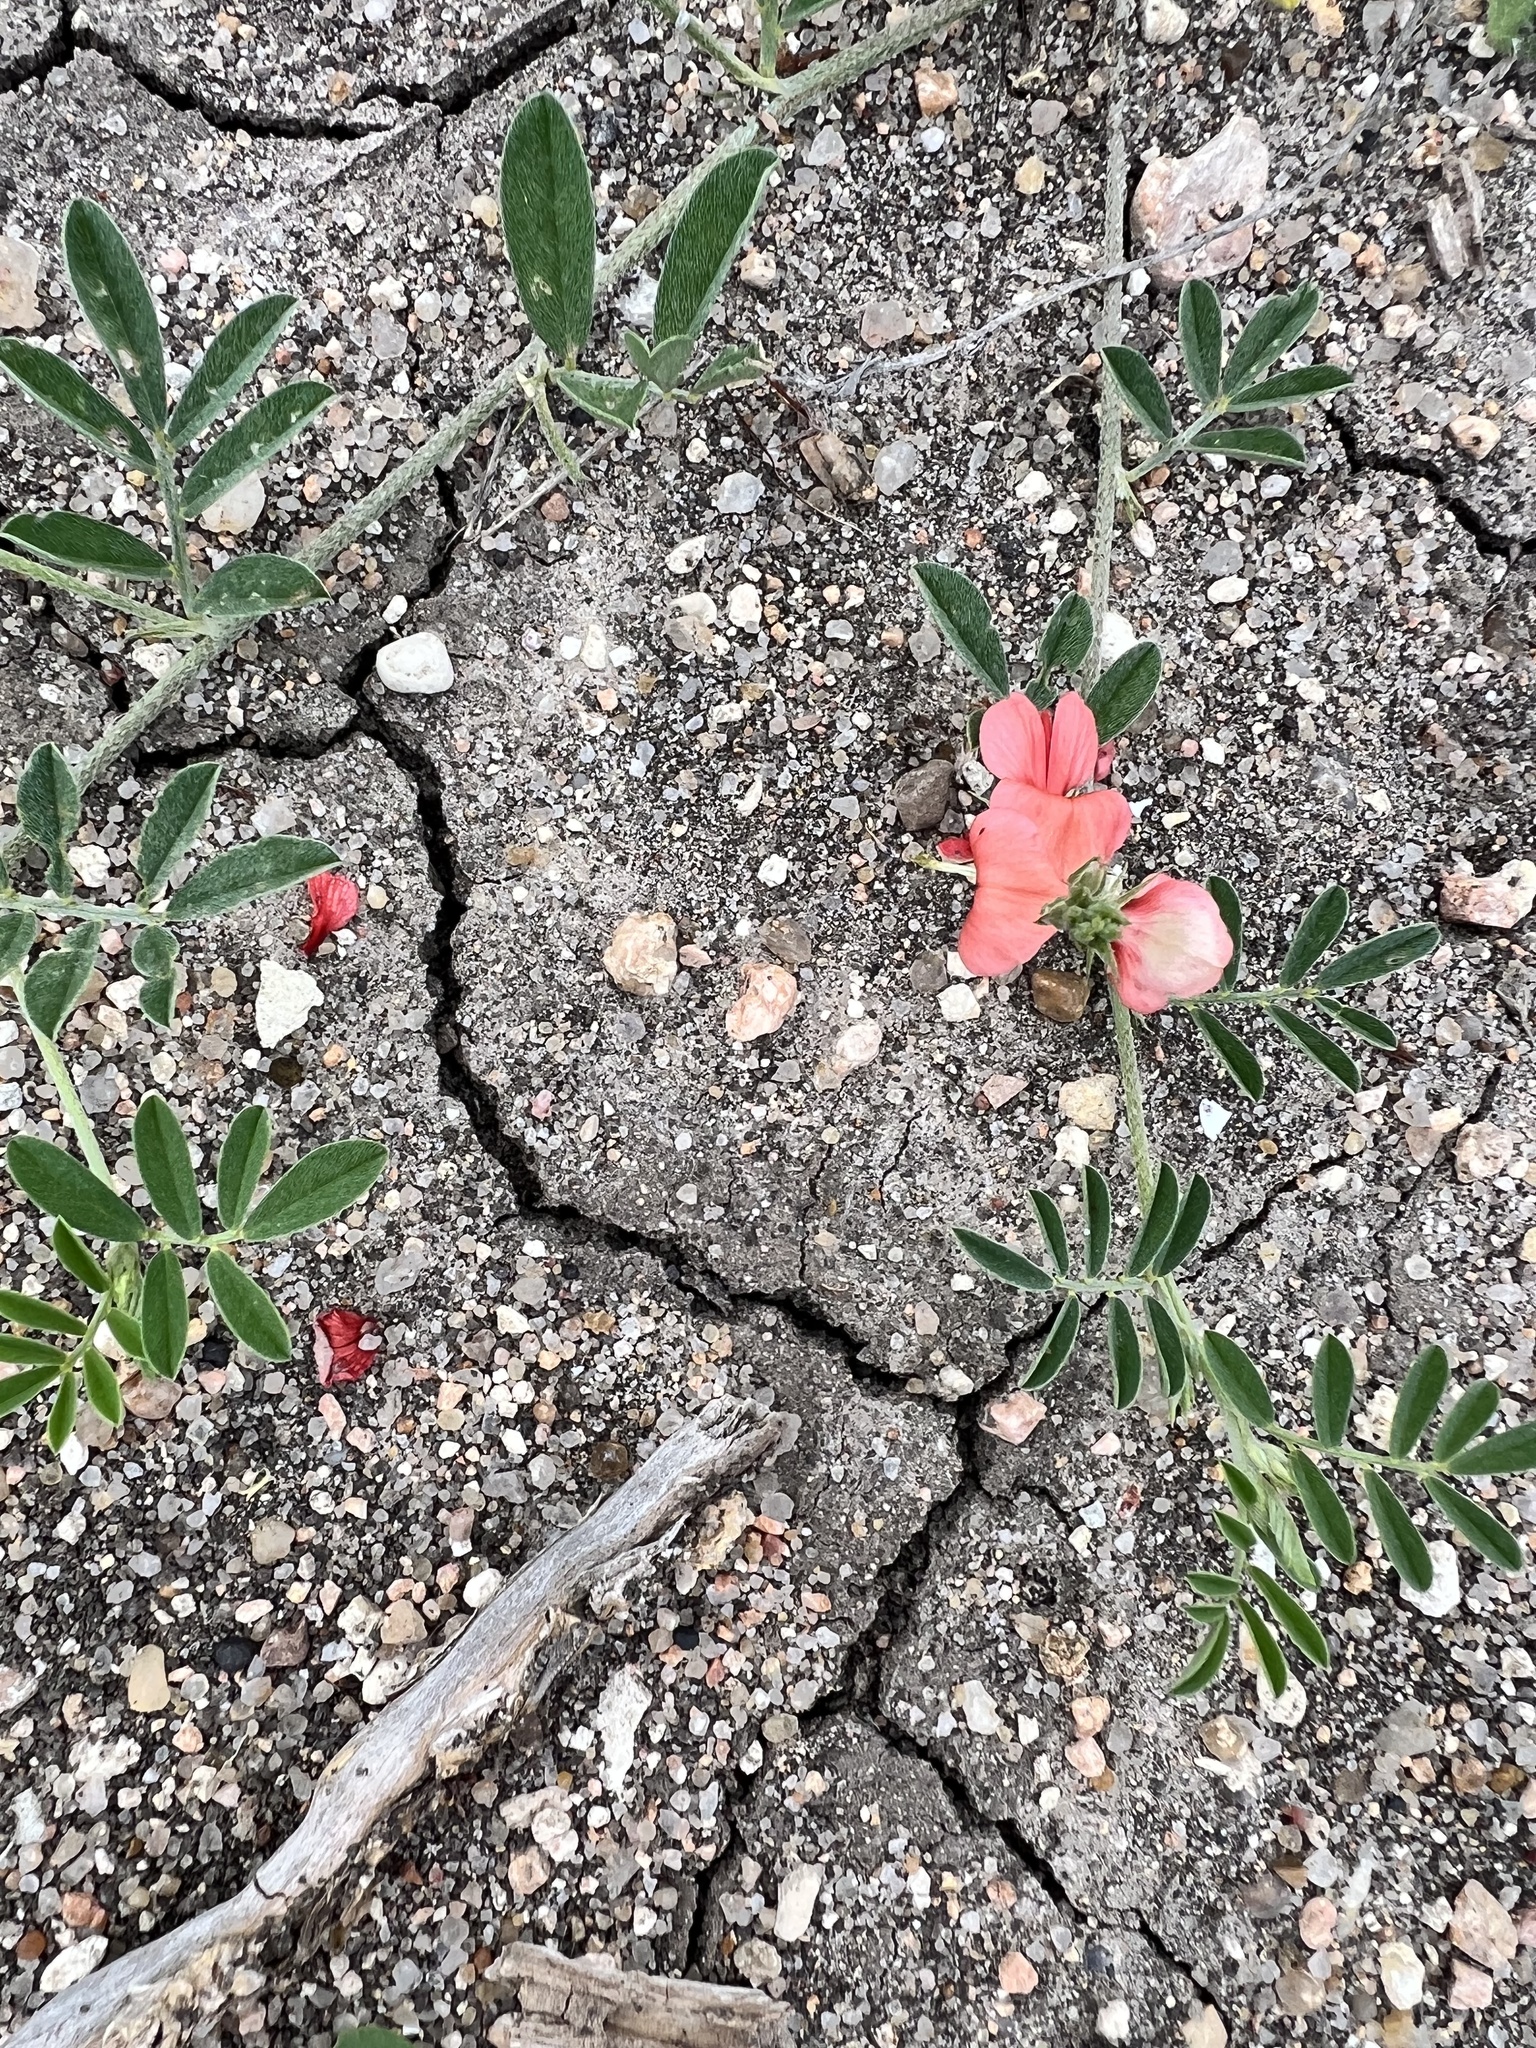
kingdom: Plantae
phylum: Tracheophyta
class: Magnoliopsida
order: Fabales
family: Fabaceae
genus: Indigofera
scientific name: Indigofera miniata
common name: Coast indigo
